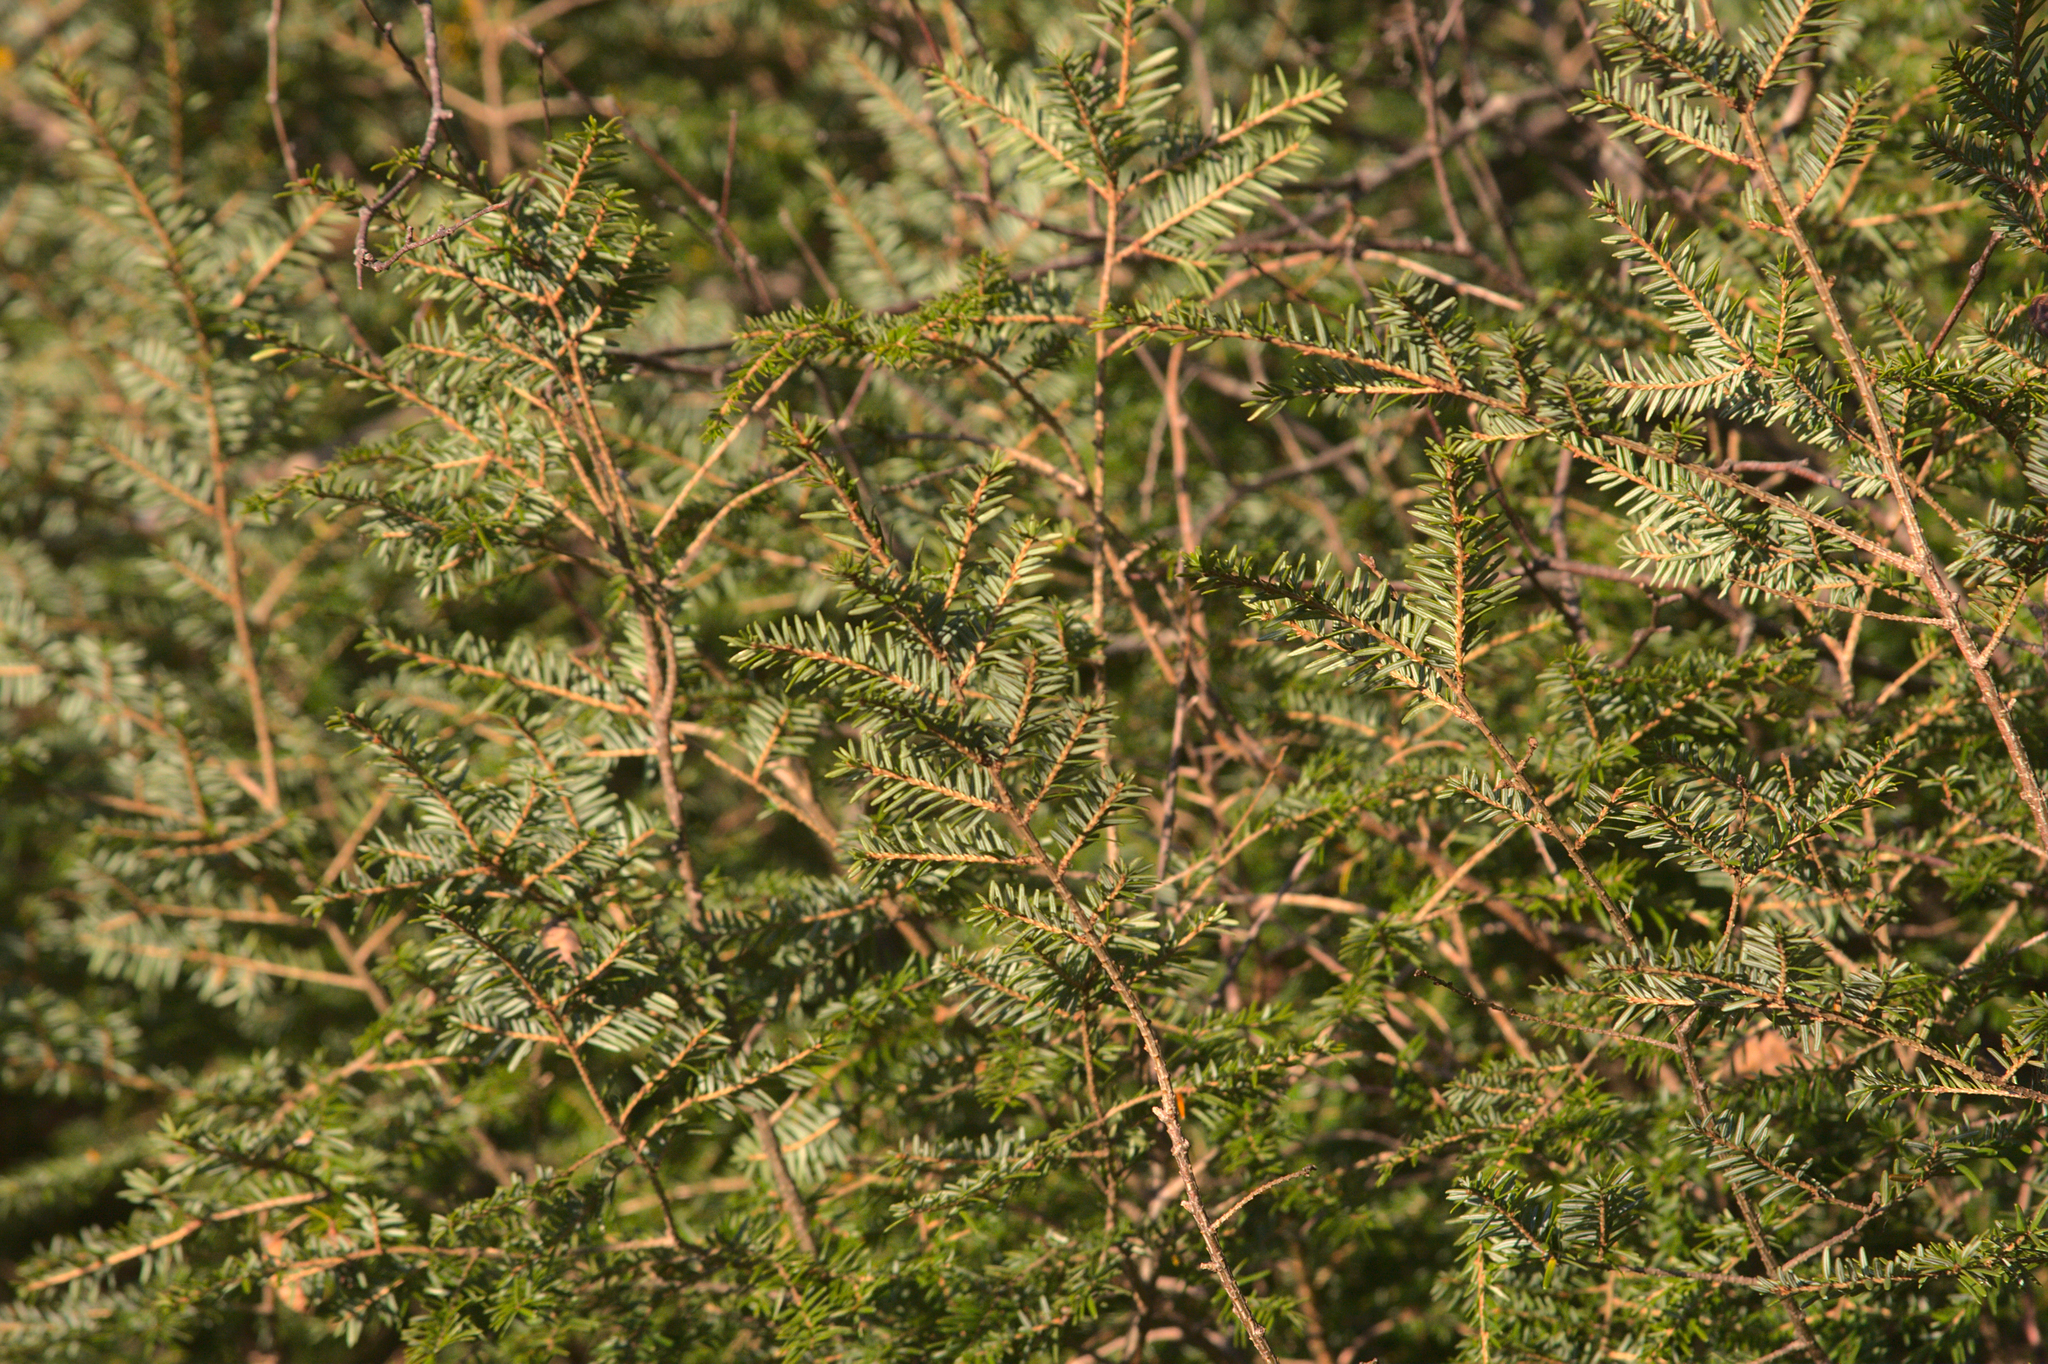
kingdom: Plantae
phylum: Tracheophyta
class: Pinopsida
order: Pinales
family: Pinaceae
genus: Tsuga
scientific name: Tsuga canadensis
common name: Eastern hemlock
